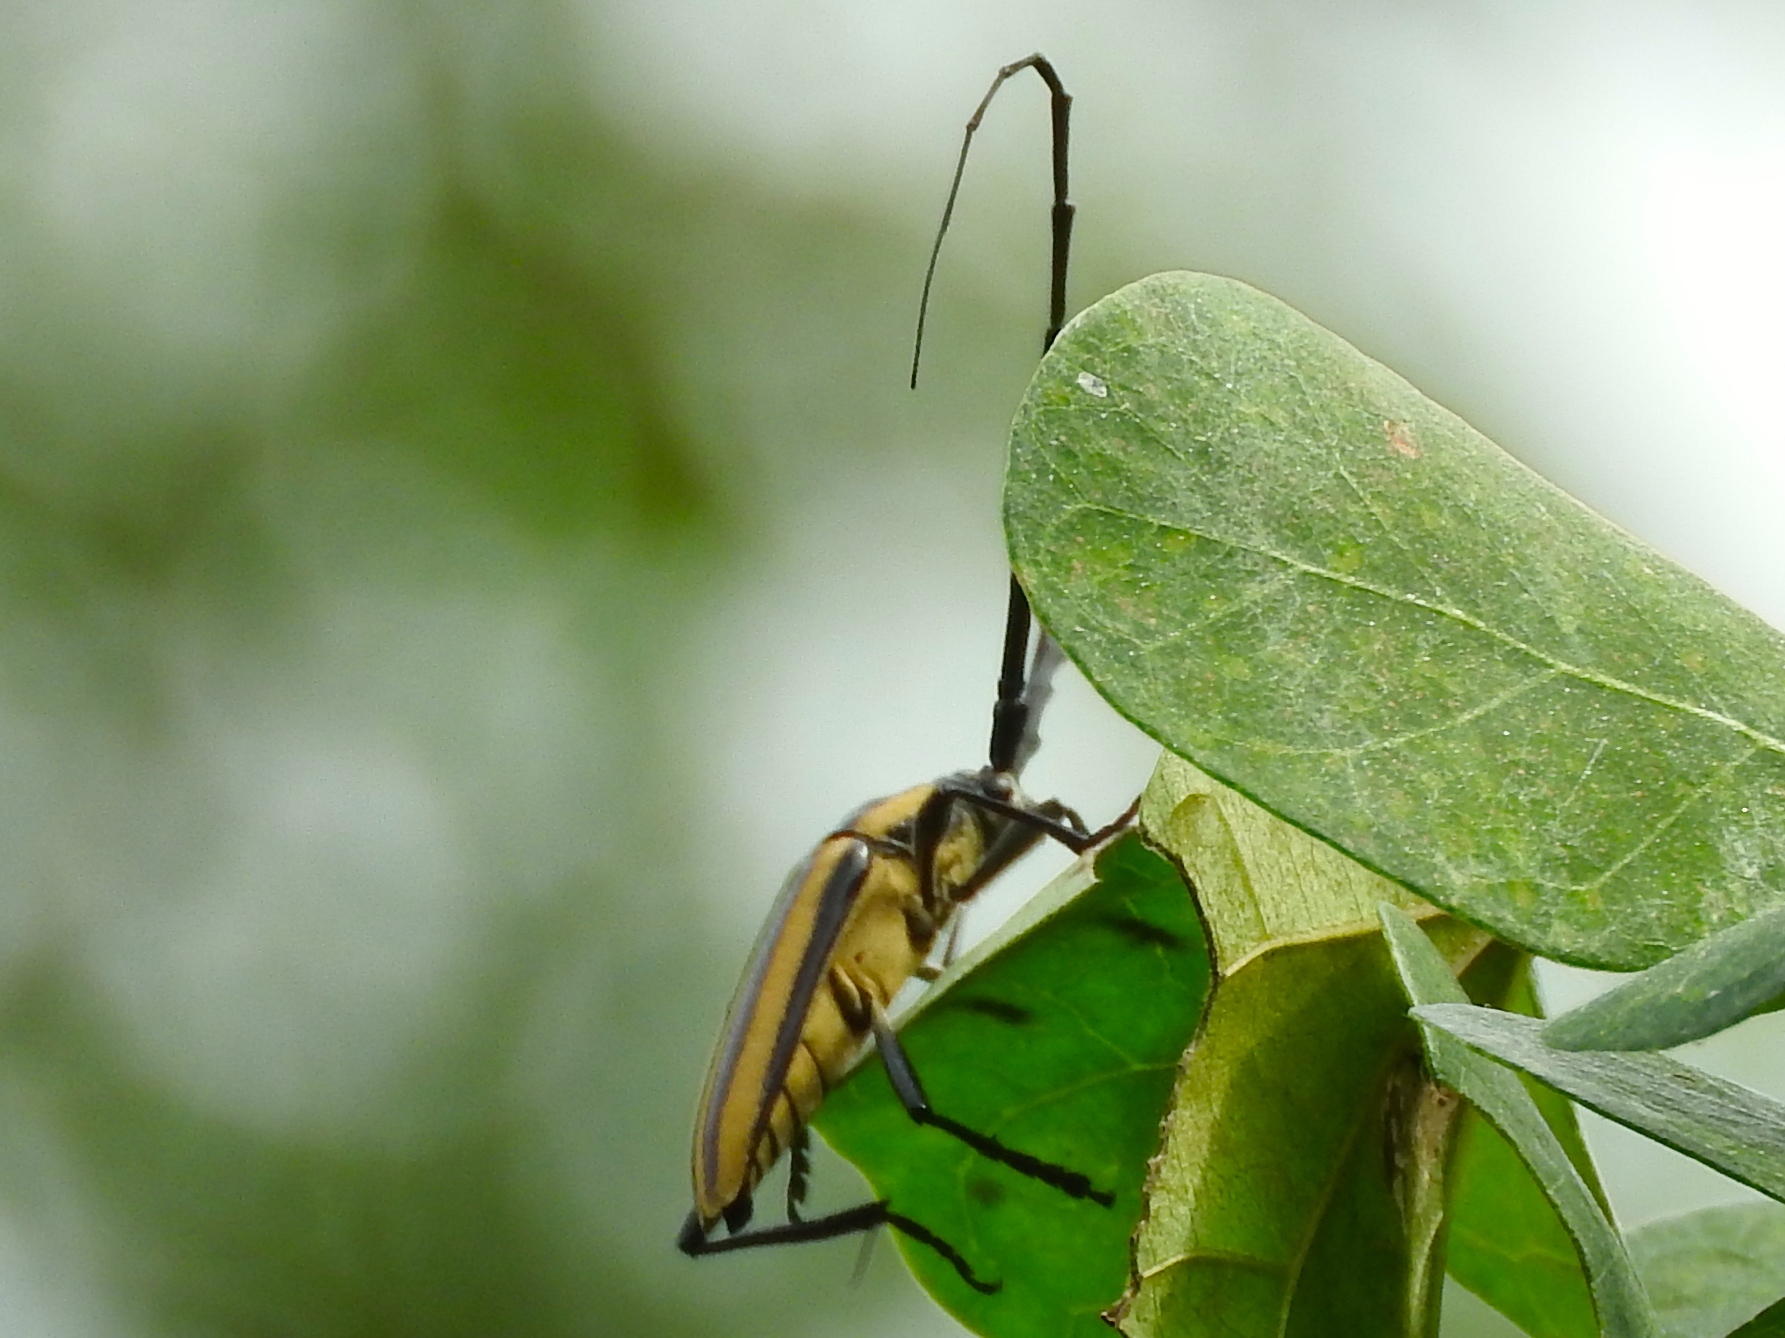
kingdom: Animalia
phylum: Arthropoda
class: Insecta
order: Coleoptera
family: Cerambycidae
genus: Sphaenothecus
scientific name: Sphaenothecus trilineatus
